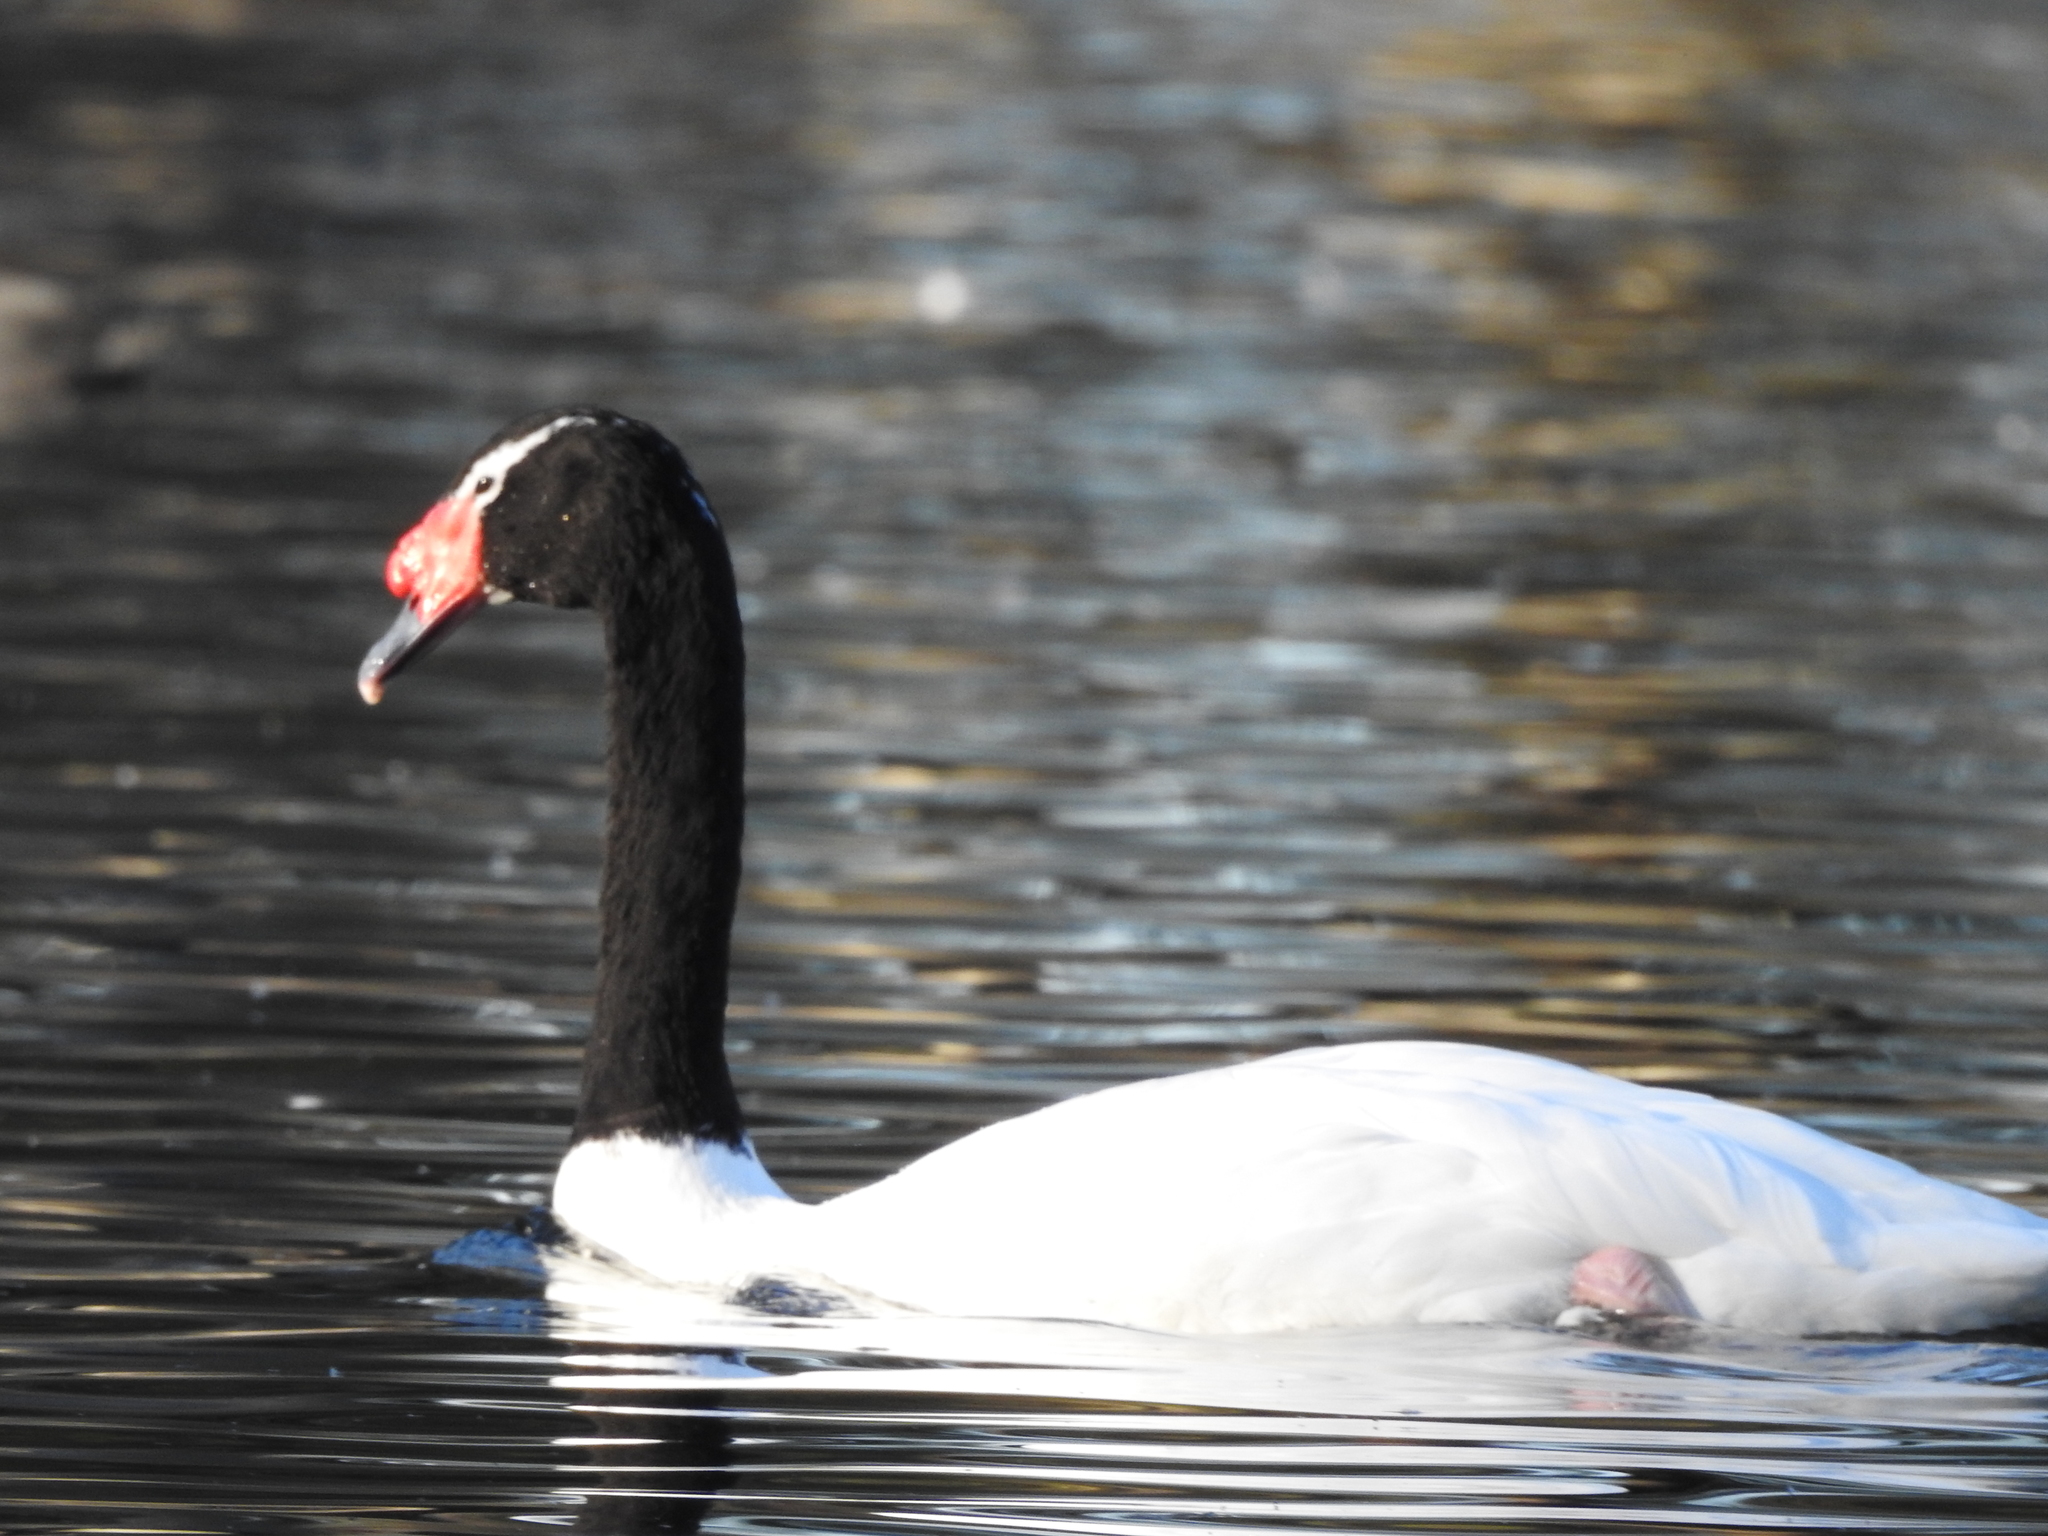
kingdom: Animalia
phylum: Chordata
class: Aves
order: Anseriformes
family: Anatidae
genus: Cygnus
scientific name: Cygnus melancoryphus
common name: Black-necked swan
